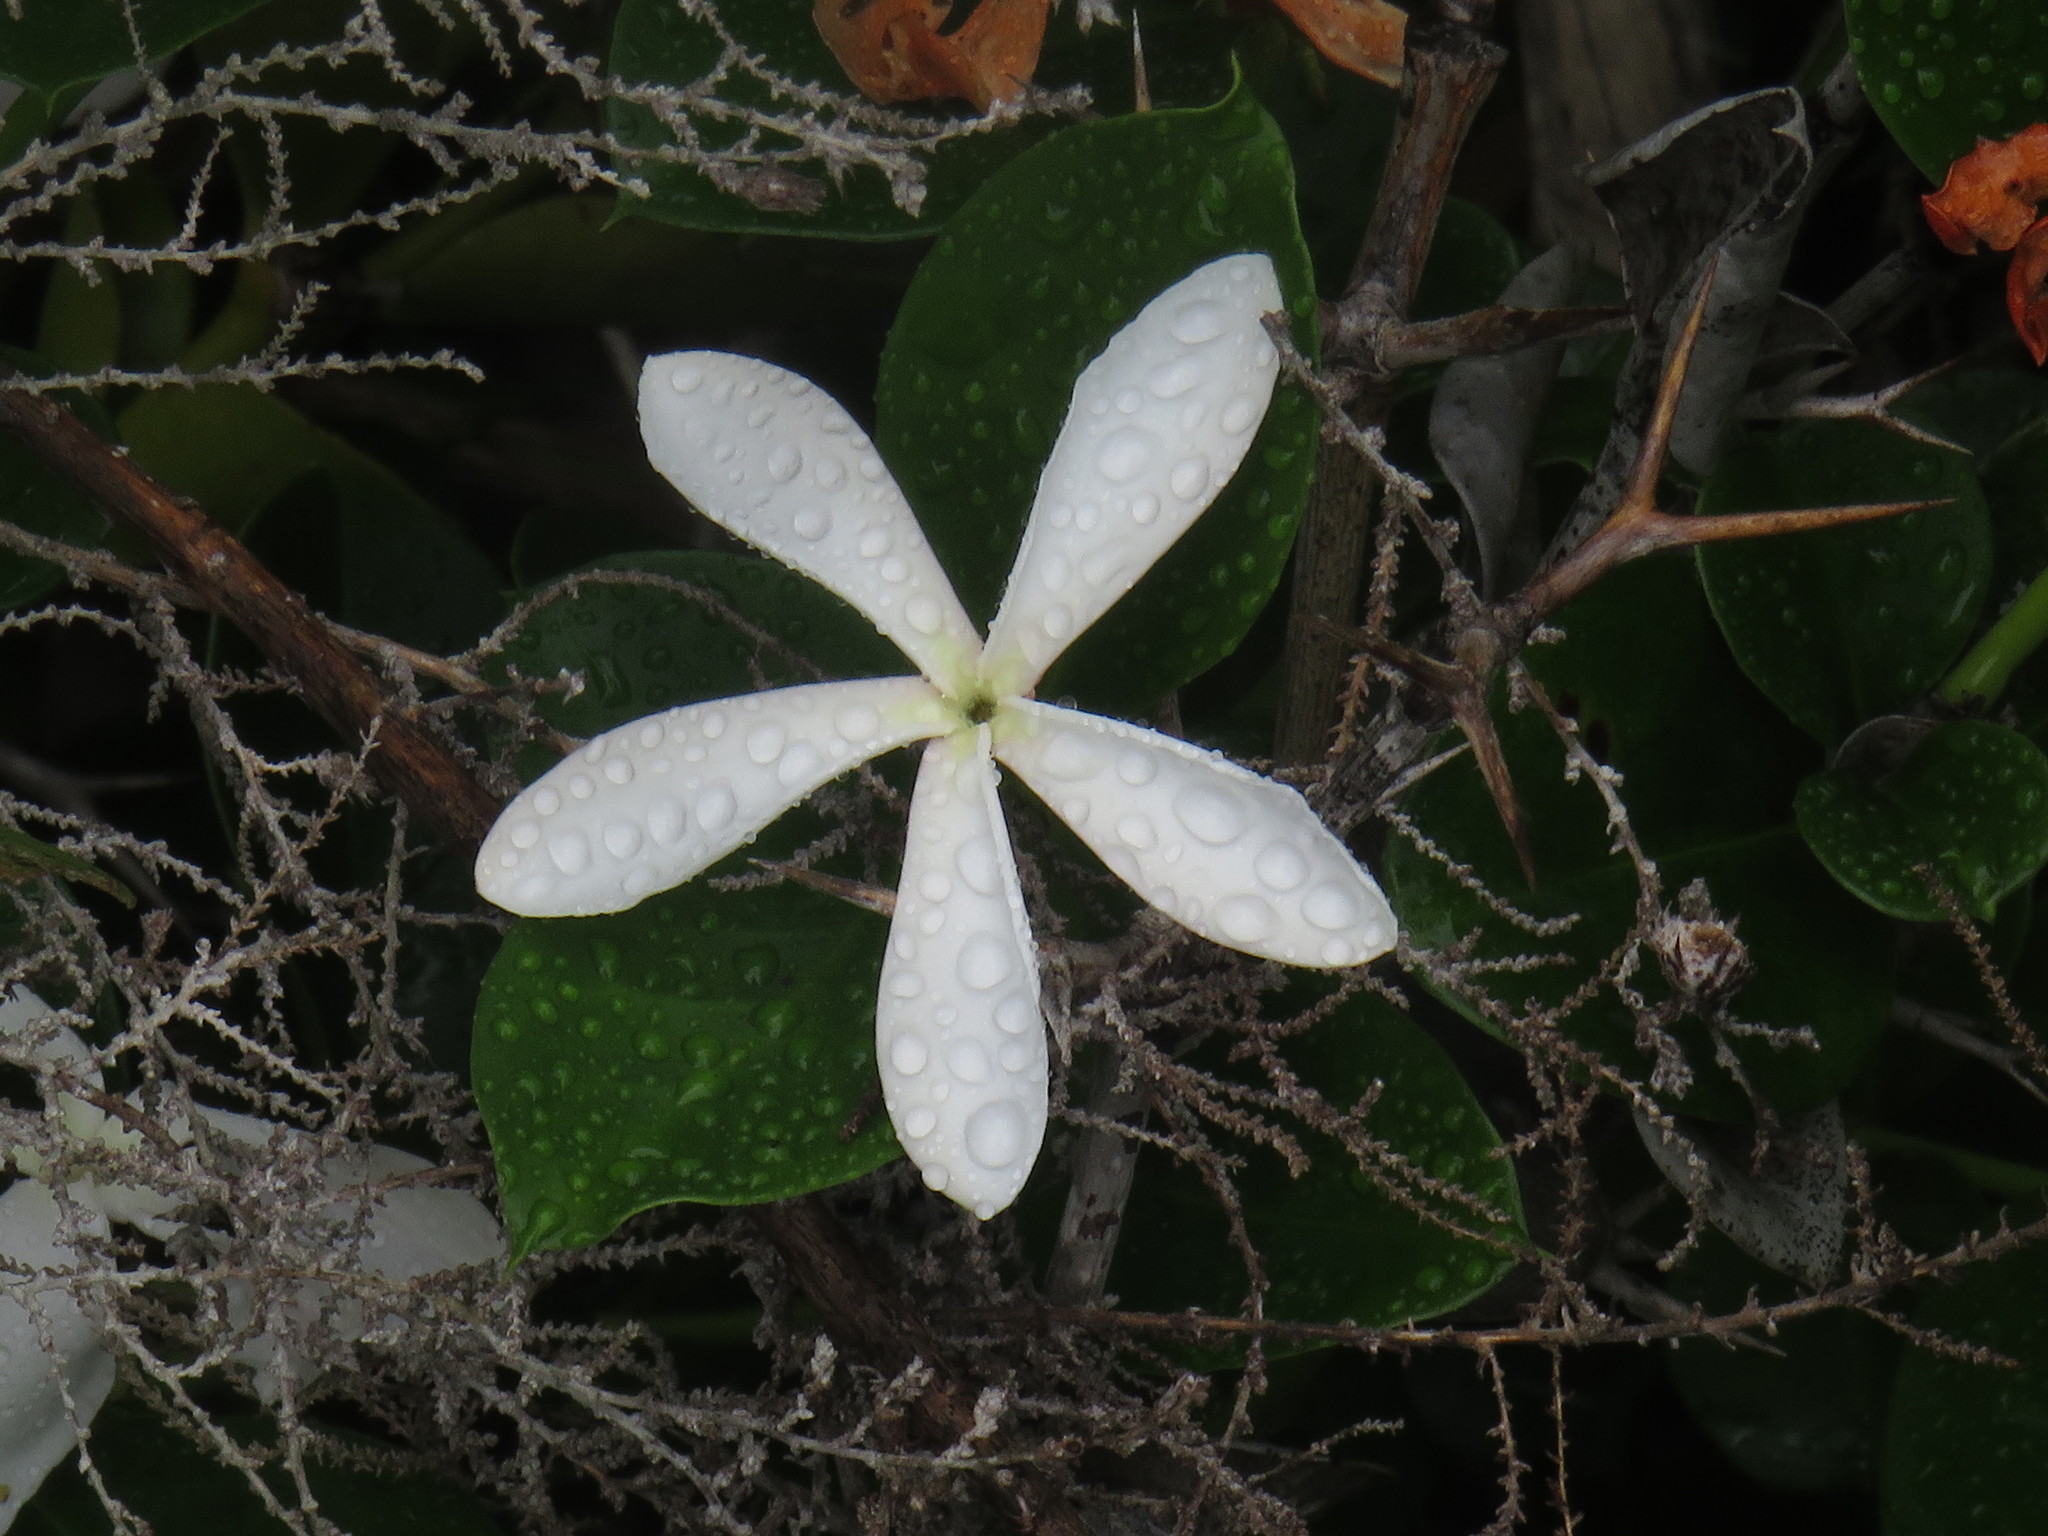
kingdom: Plantae
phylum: Tracheophyta
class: Magnoliopsida
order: Gentianales
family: Apocynaceae
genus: Carissa
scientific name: Carissa macrocarpa
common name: Natal plum
